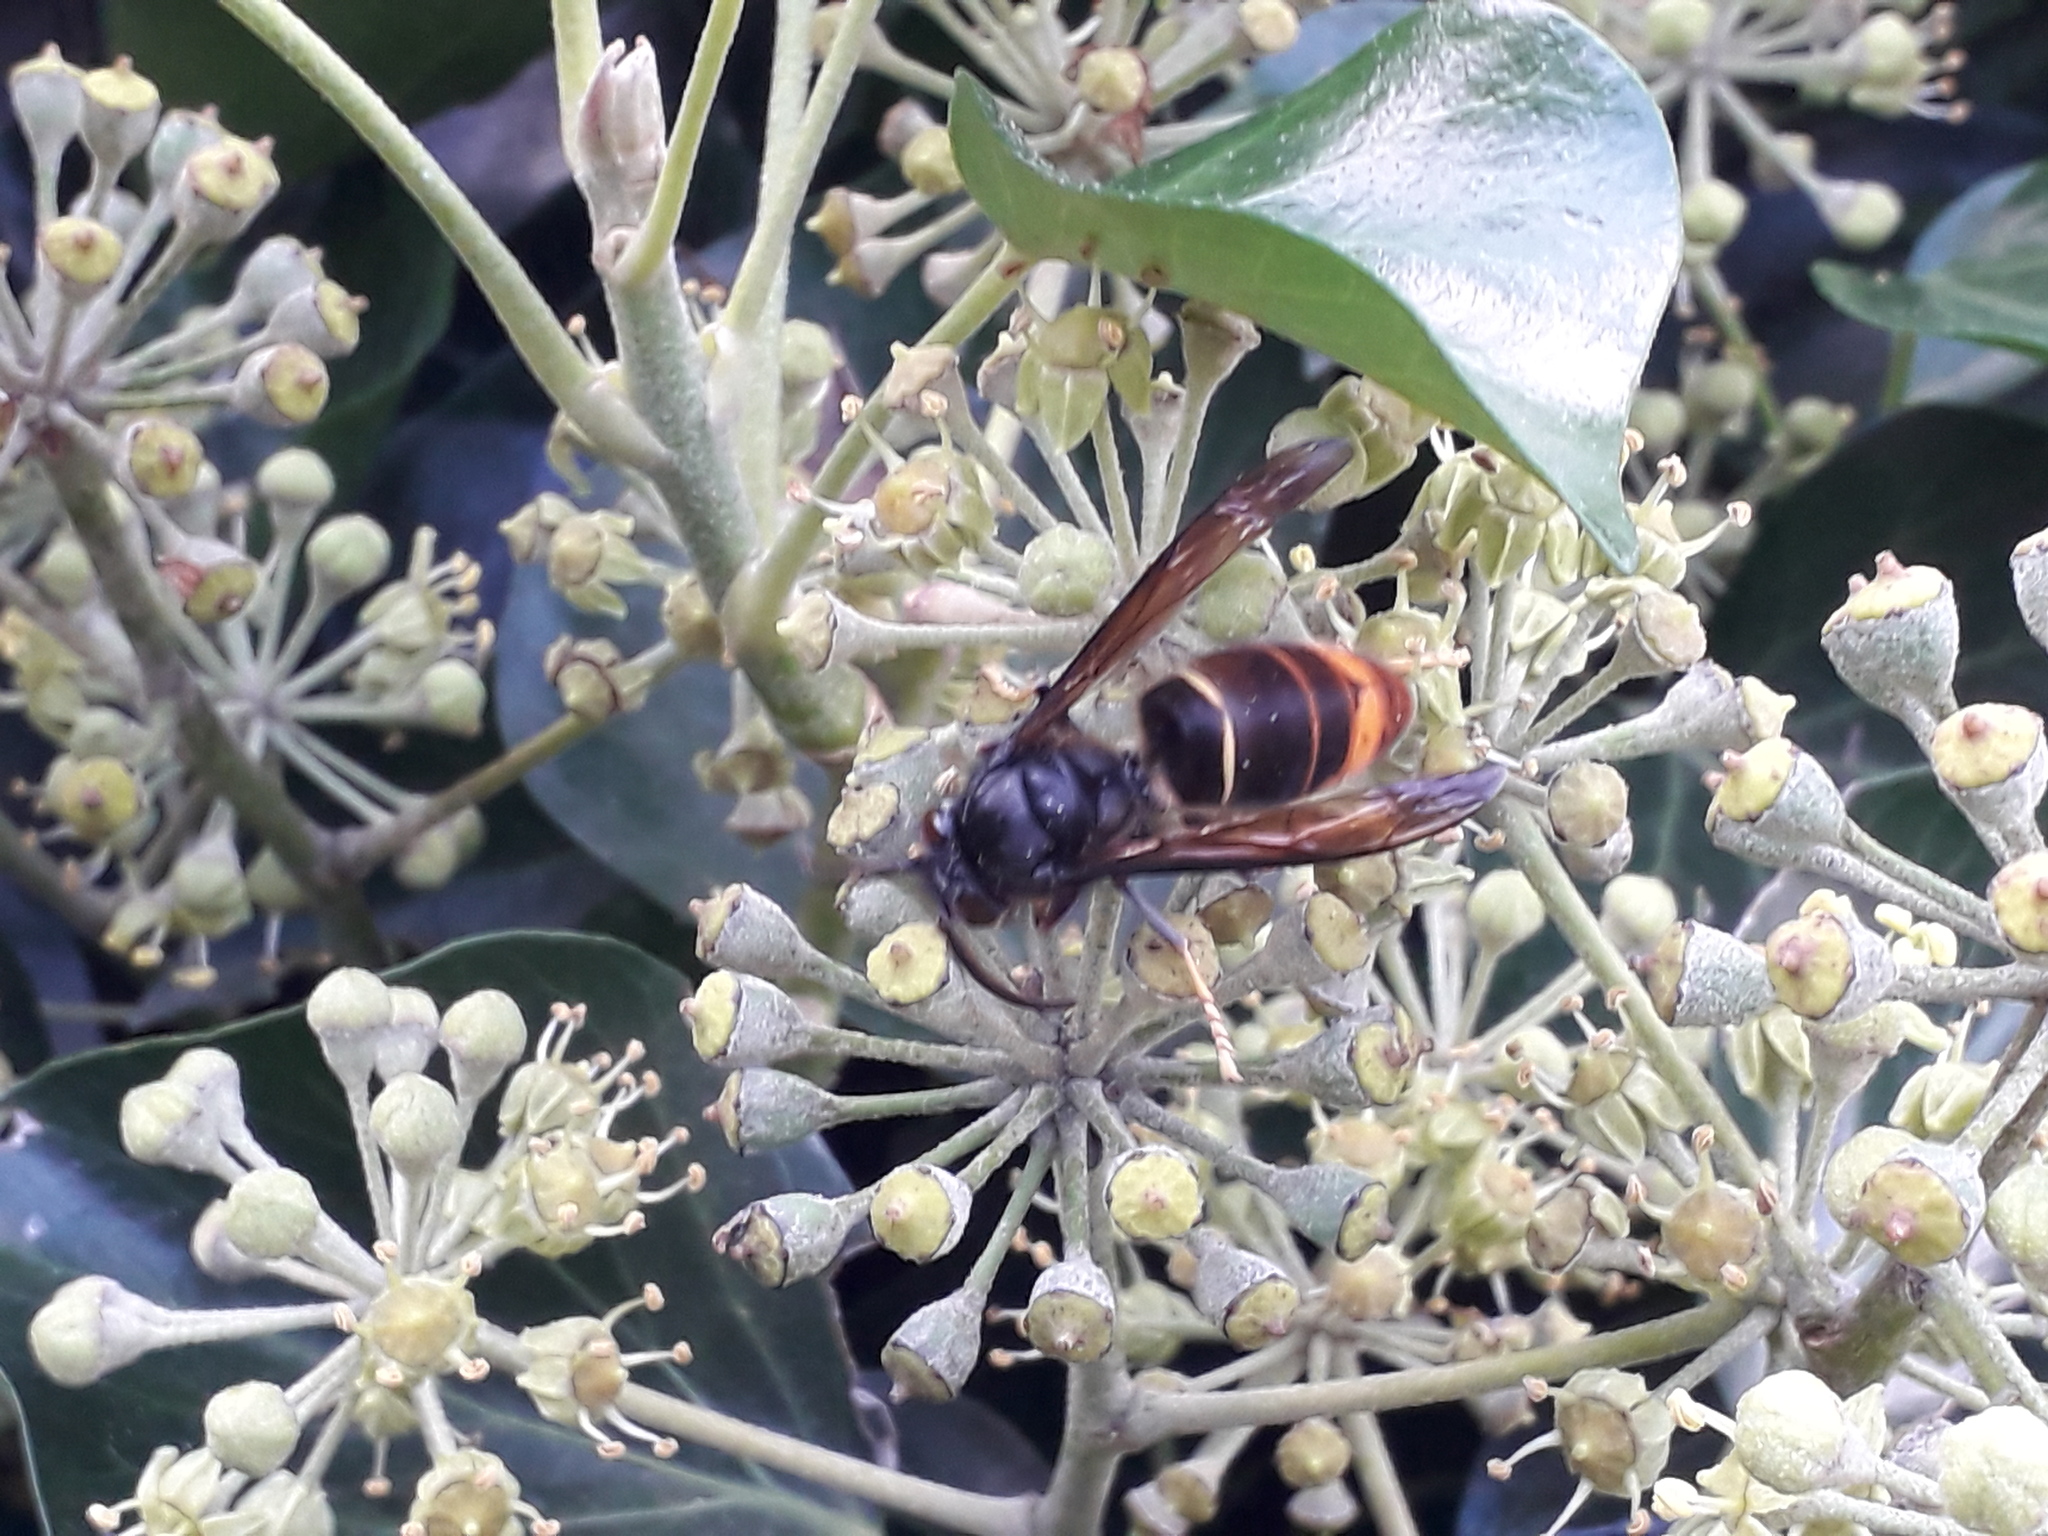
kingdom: Animalia
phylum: Arthropoda
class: Insecta
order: Hymenoptera
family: Vespidae
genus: Vespa
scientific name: Vespa velutina
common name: Asian hornet
